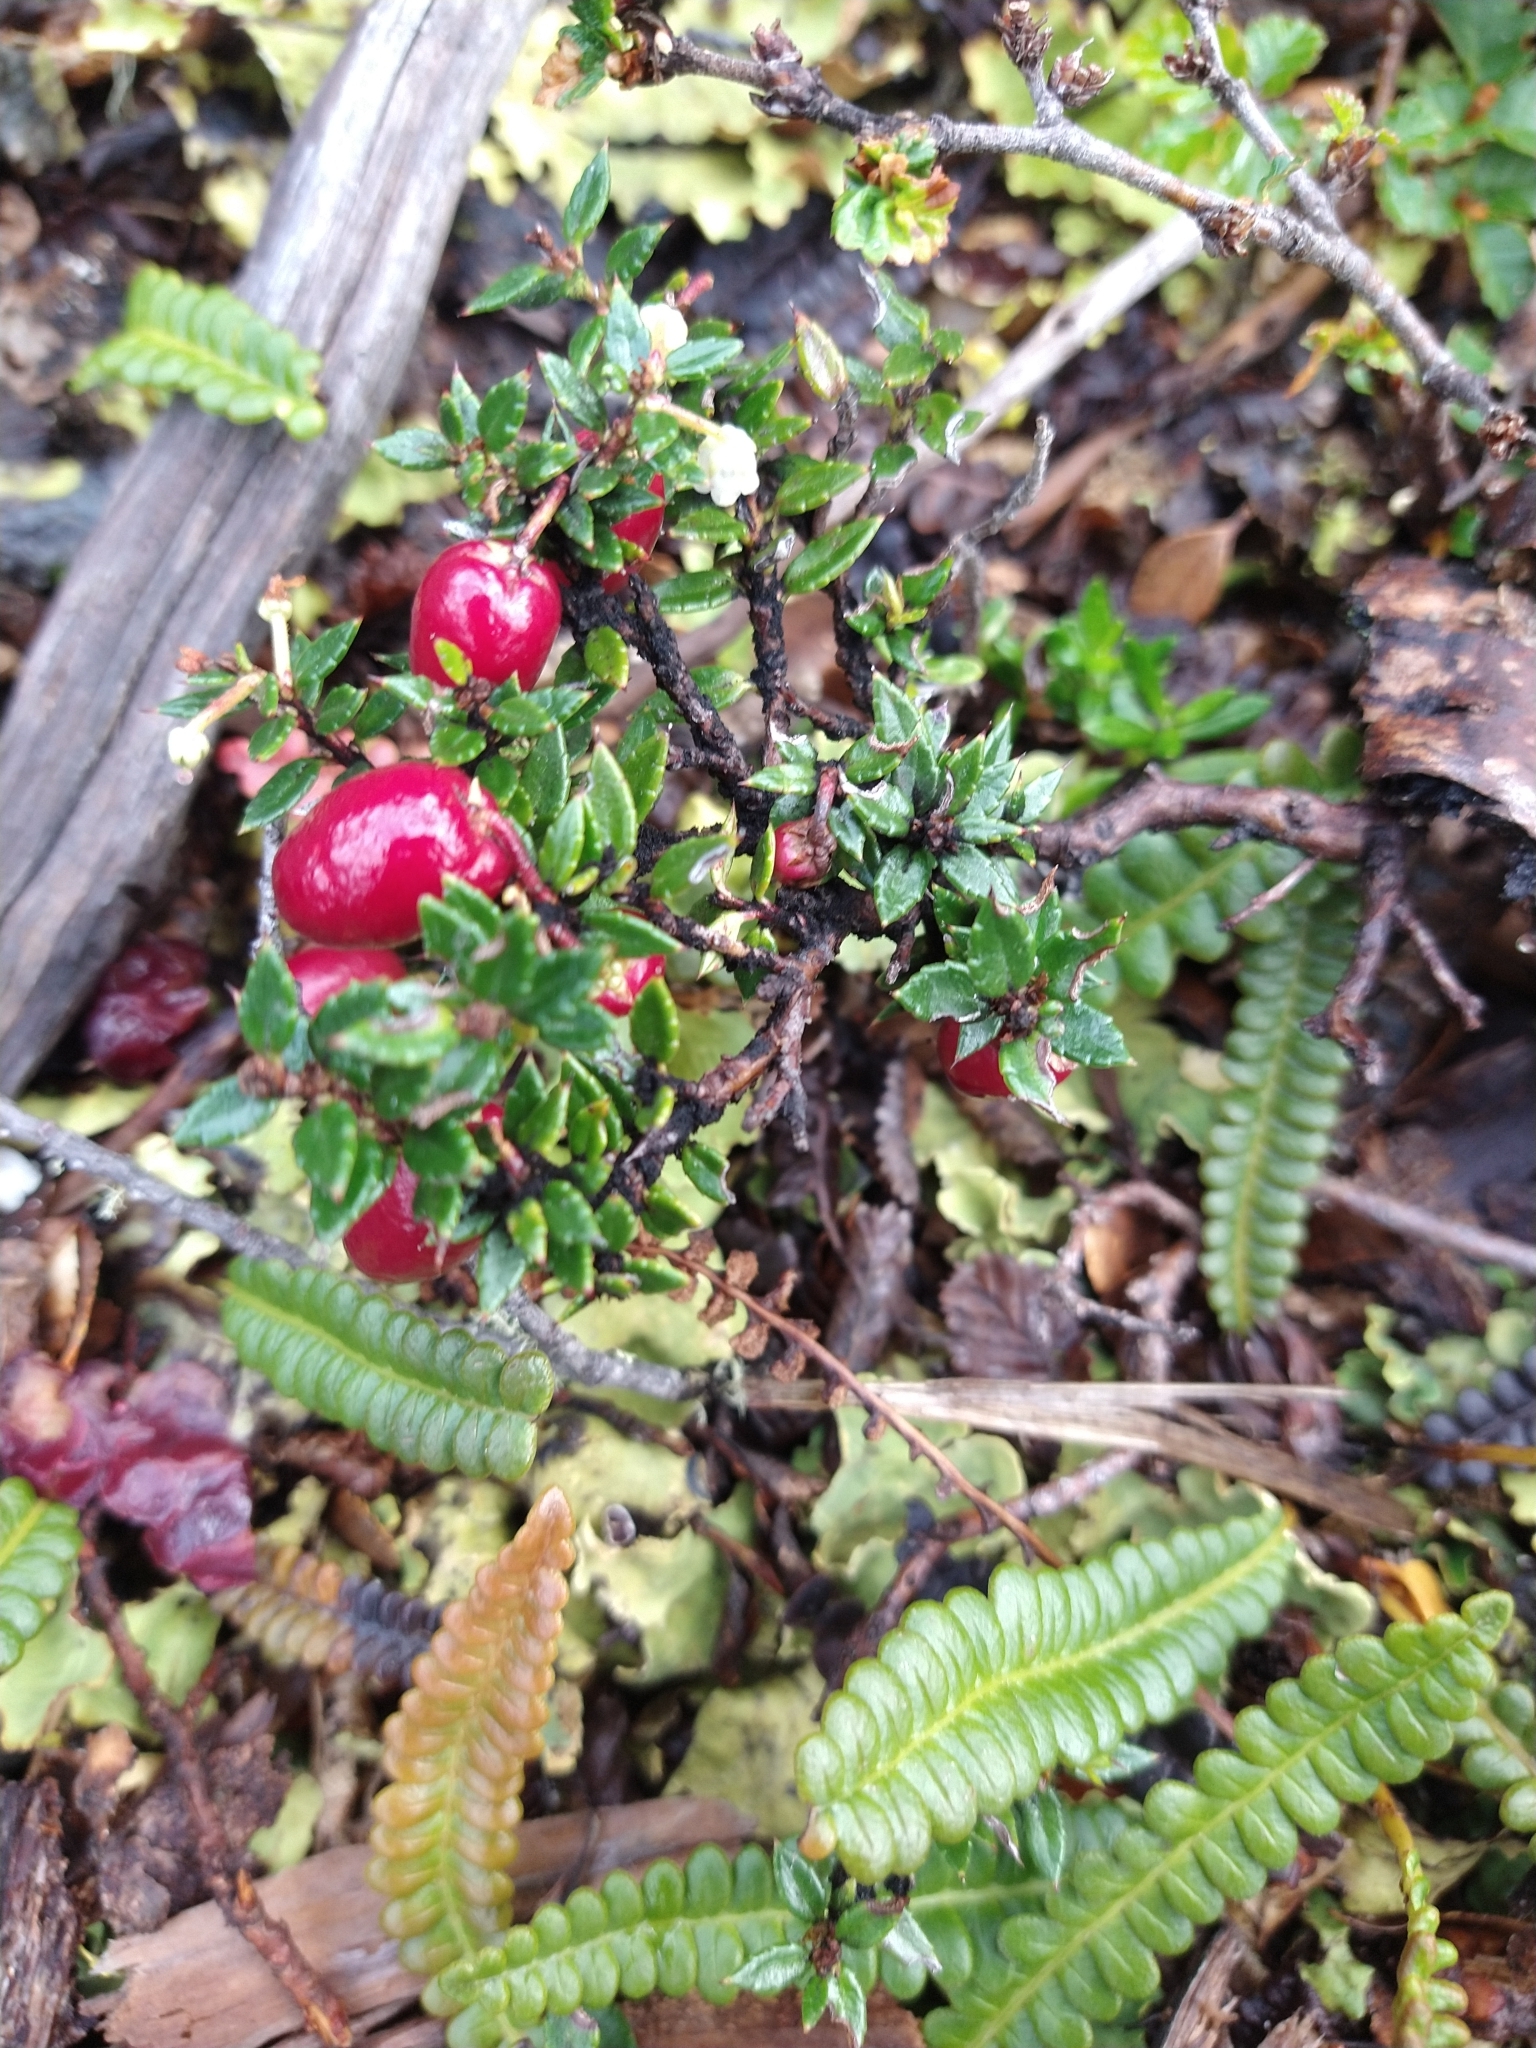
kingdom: Plantae
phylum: Tracheophyta
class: Magnoliopsida
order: Ericales
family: Ericaceae
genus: Gaultheria
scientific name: Gaultheria mucronata
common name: Prickly heath
